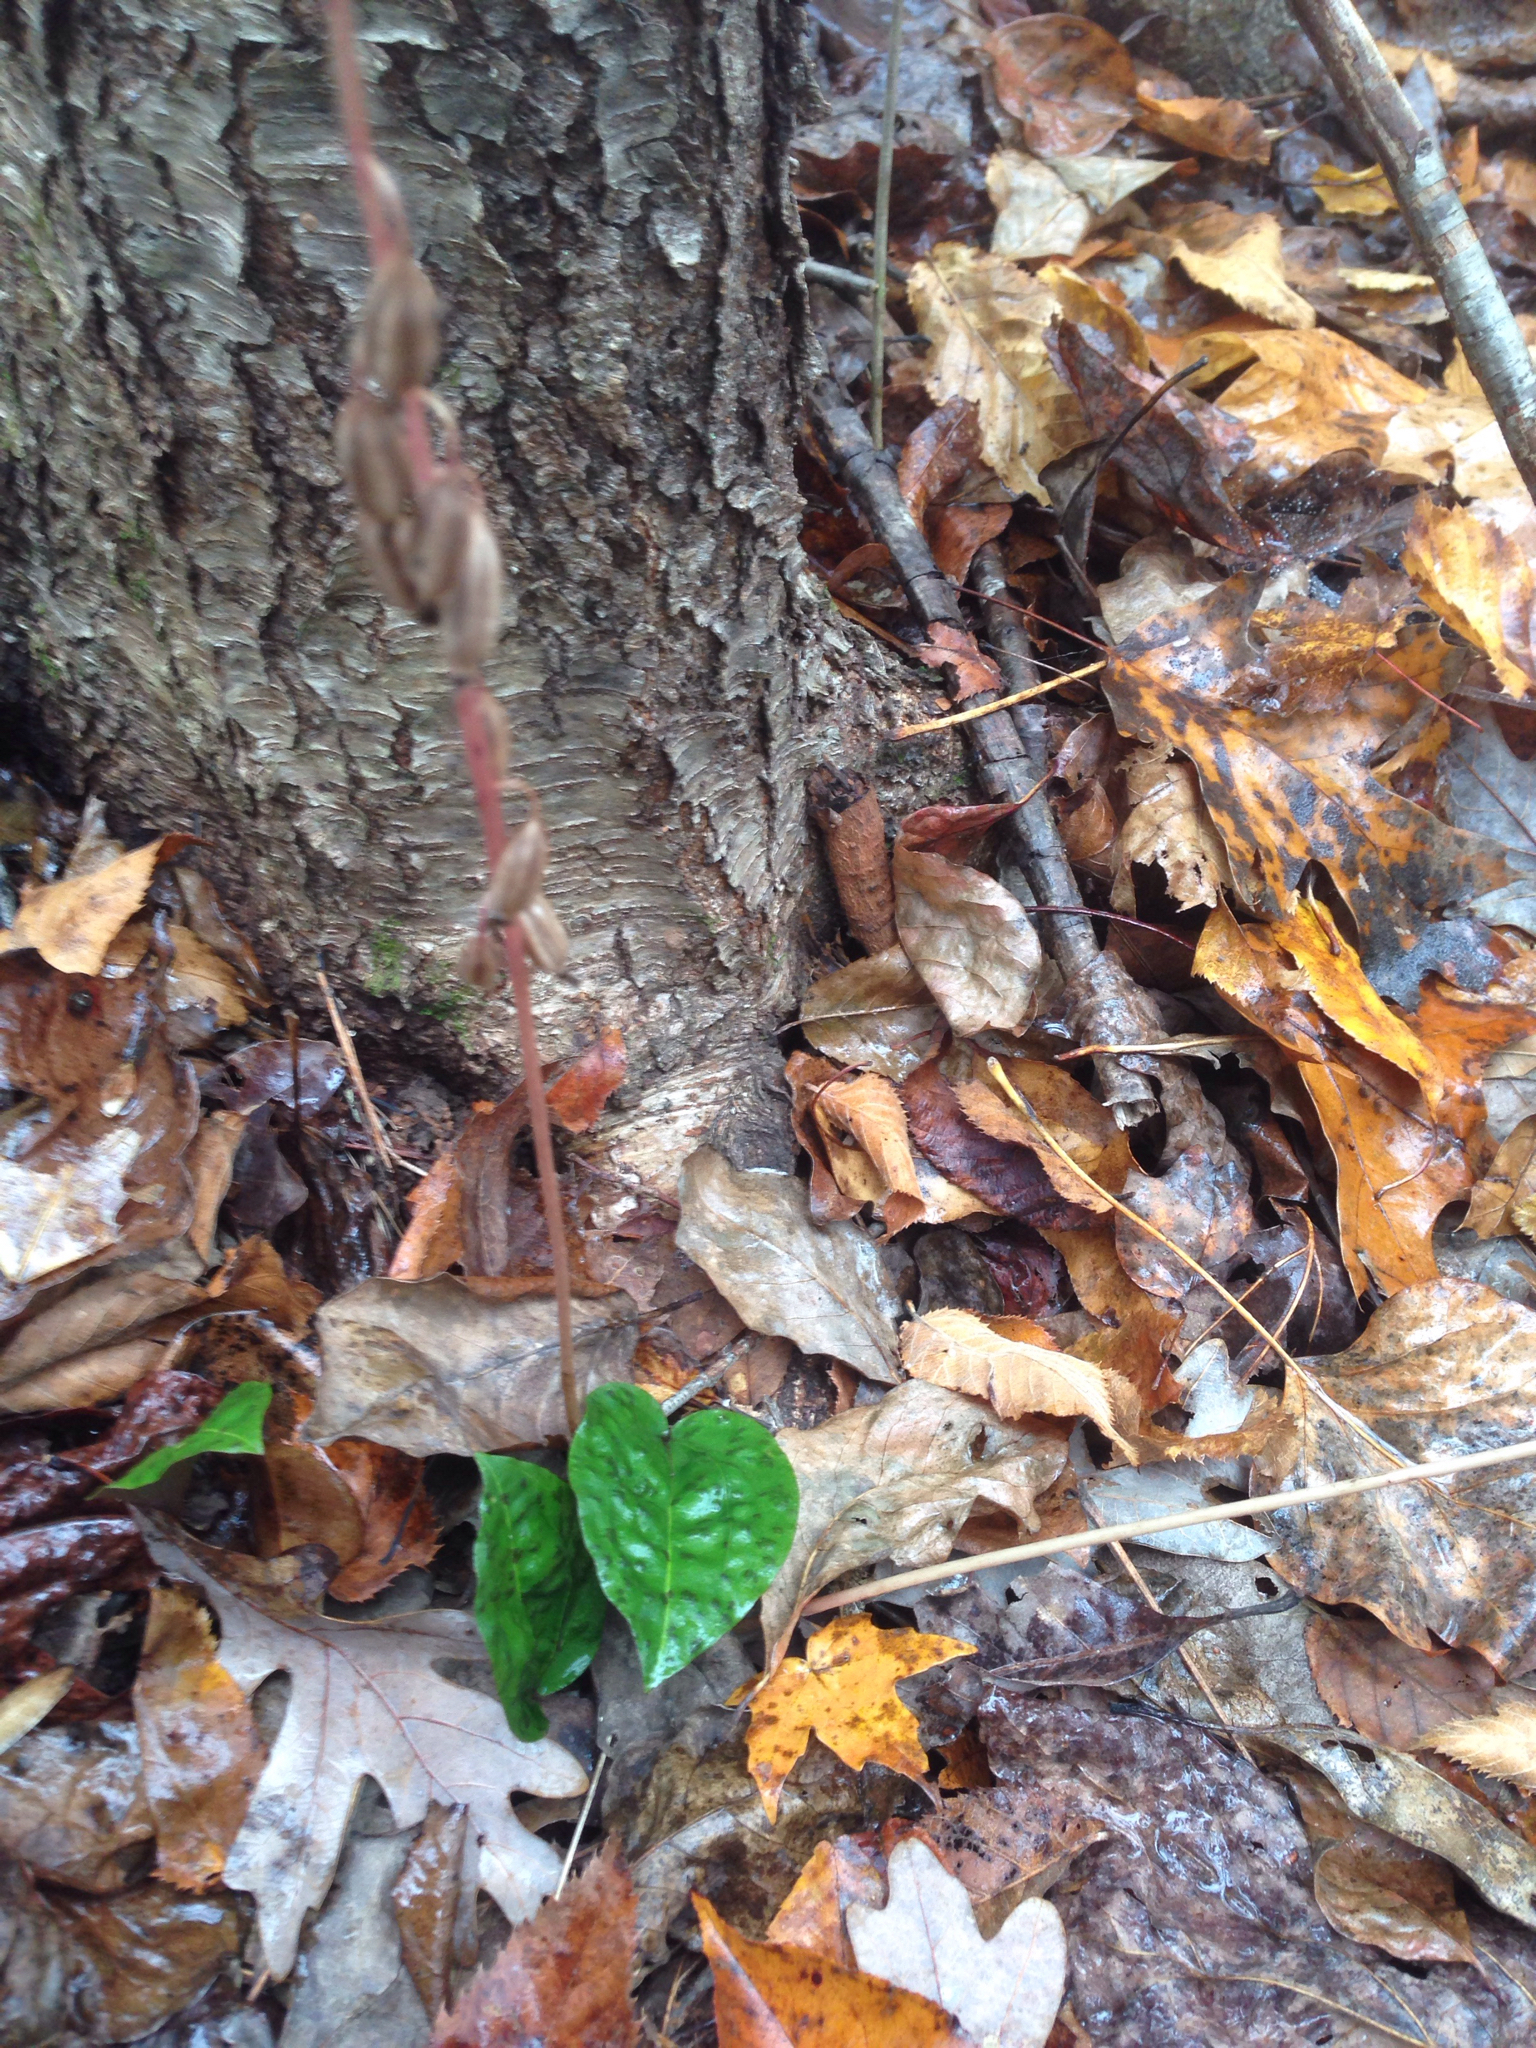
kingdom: Plantae
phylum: Tracheophyta
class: Liliopsida
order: Asparagales
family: Orchidaceae
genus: Tipularia
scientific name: Tipularia discolor
